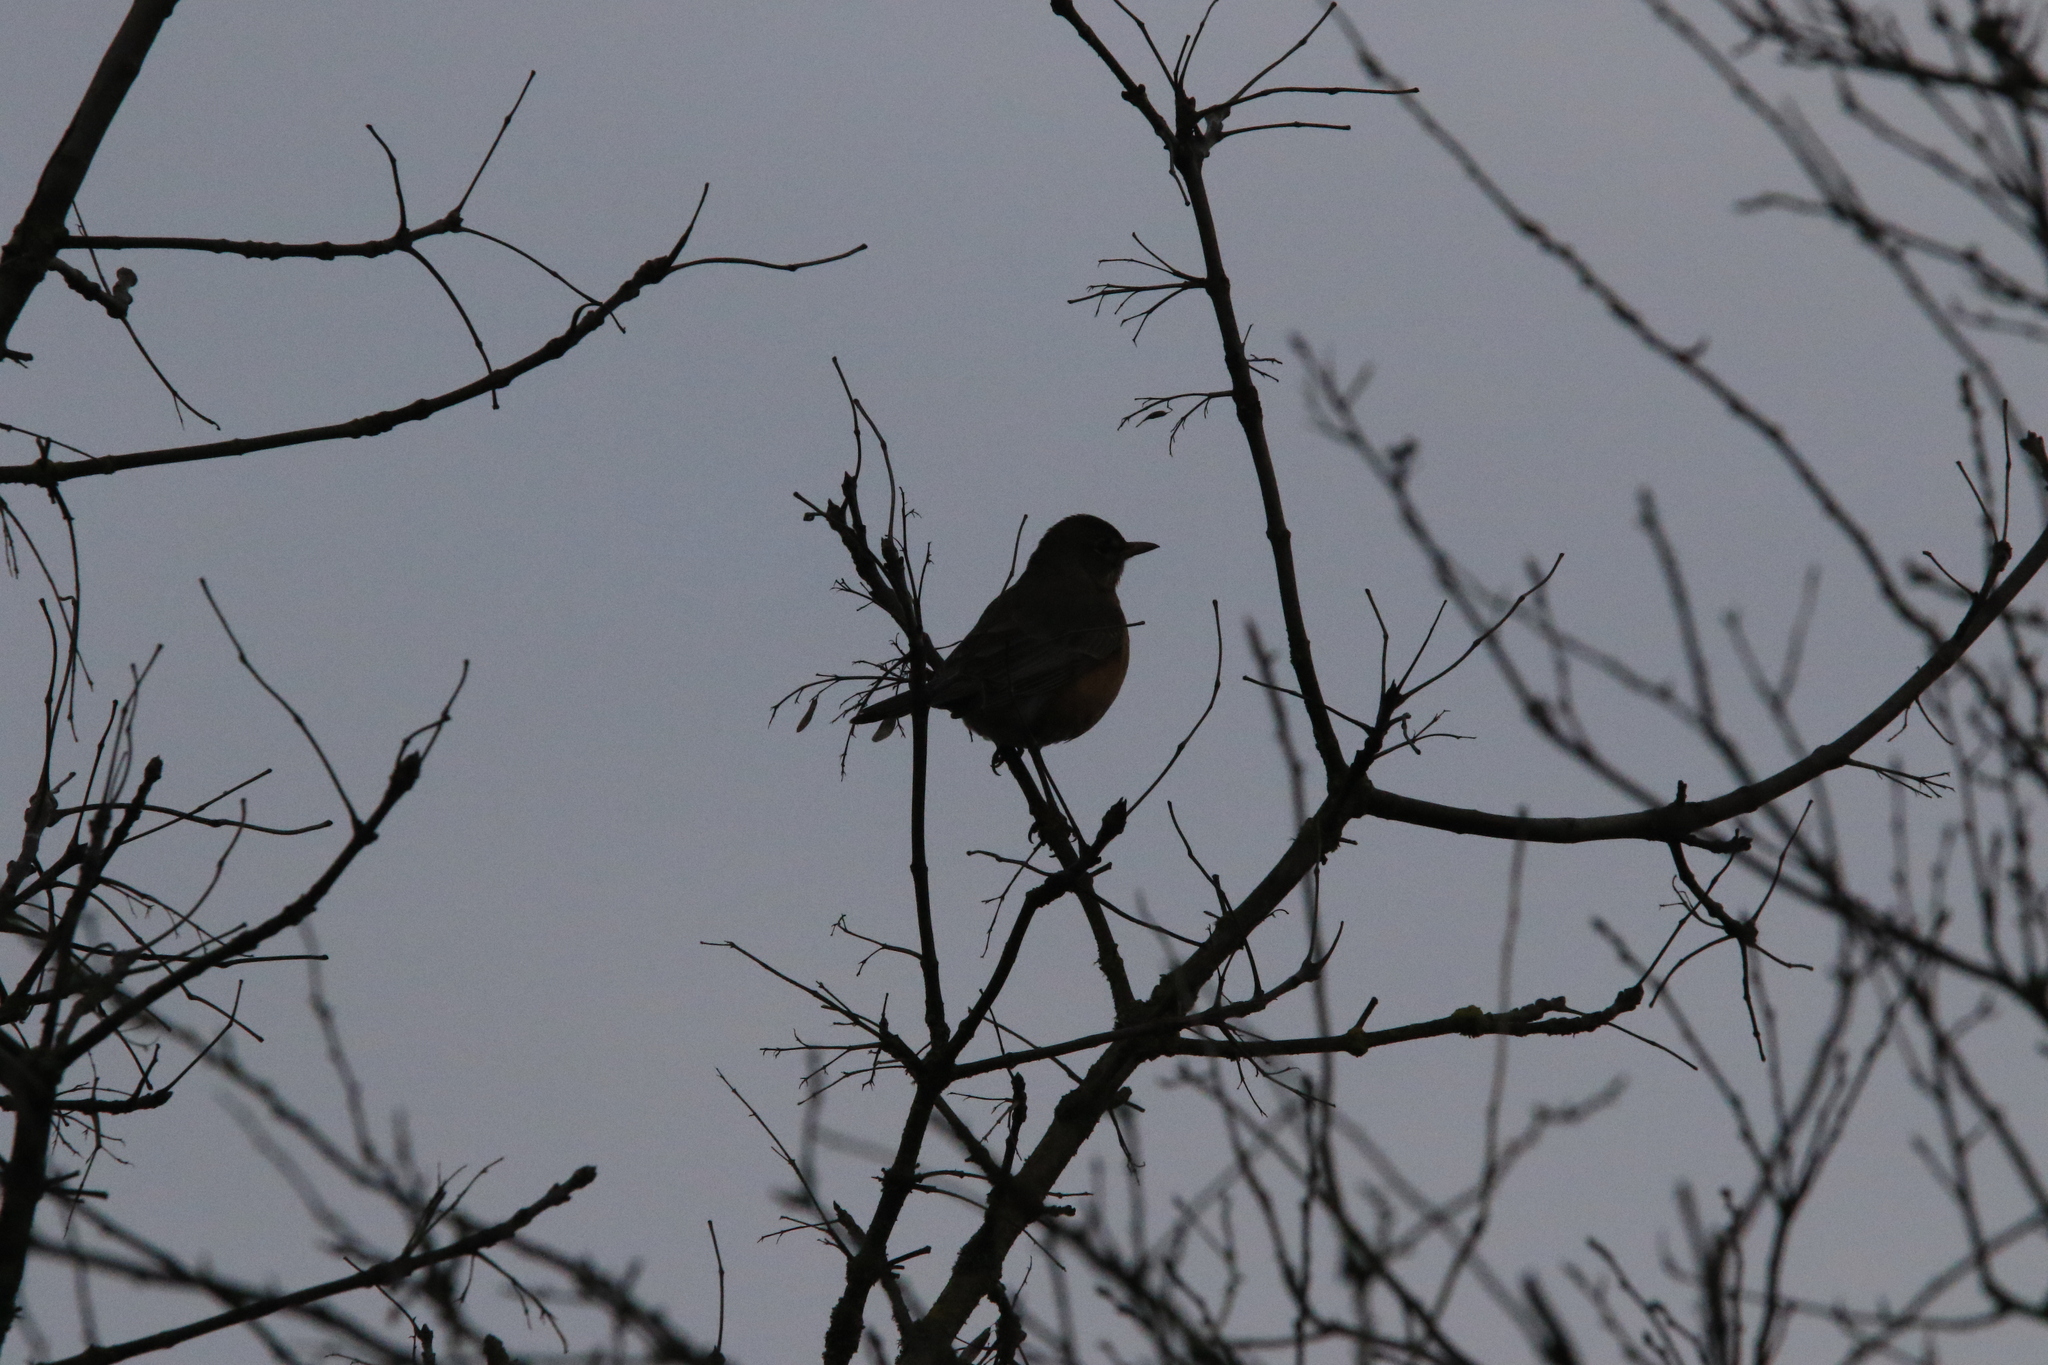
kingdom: Animalia
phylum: Chordata
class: Aves
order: Passeriformes
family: Turdidae
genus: Turdus
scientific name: Turdus migratorius
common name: American robin
